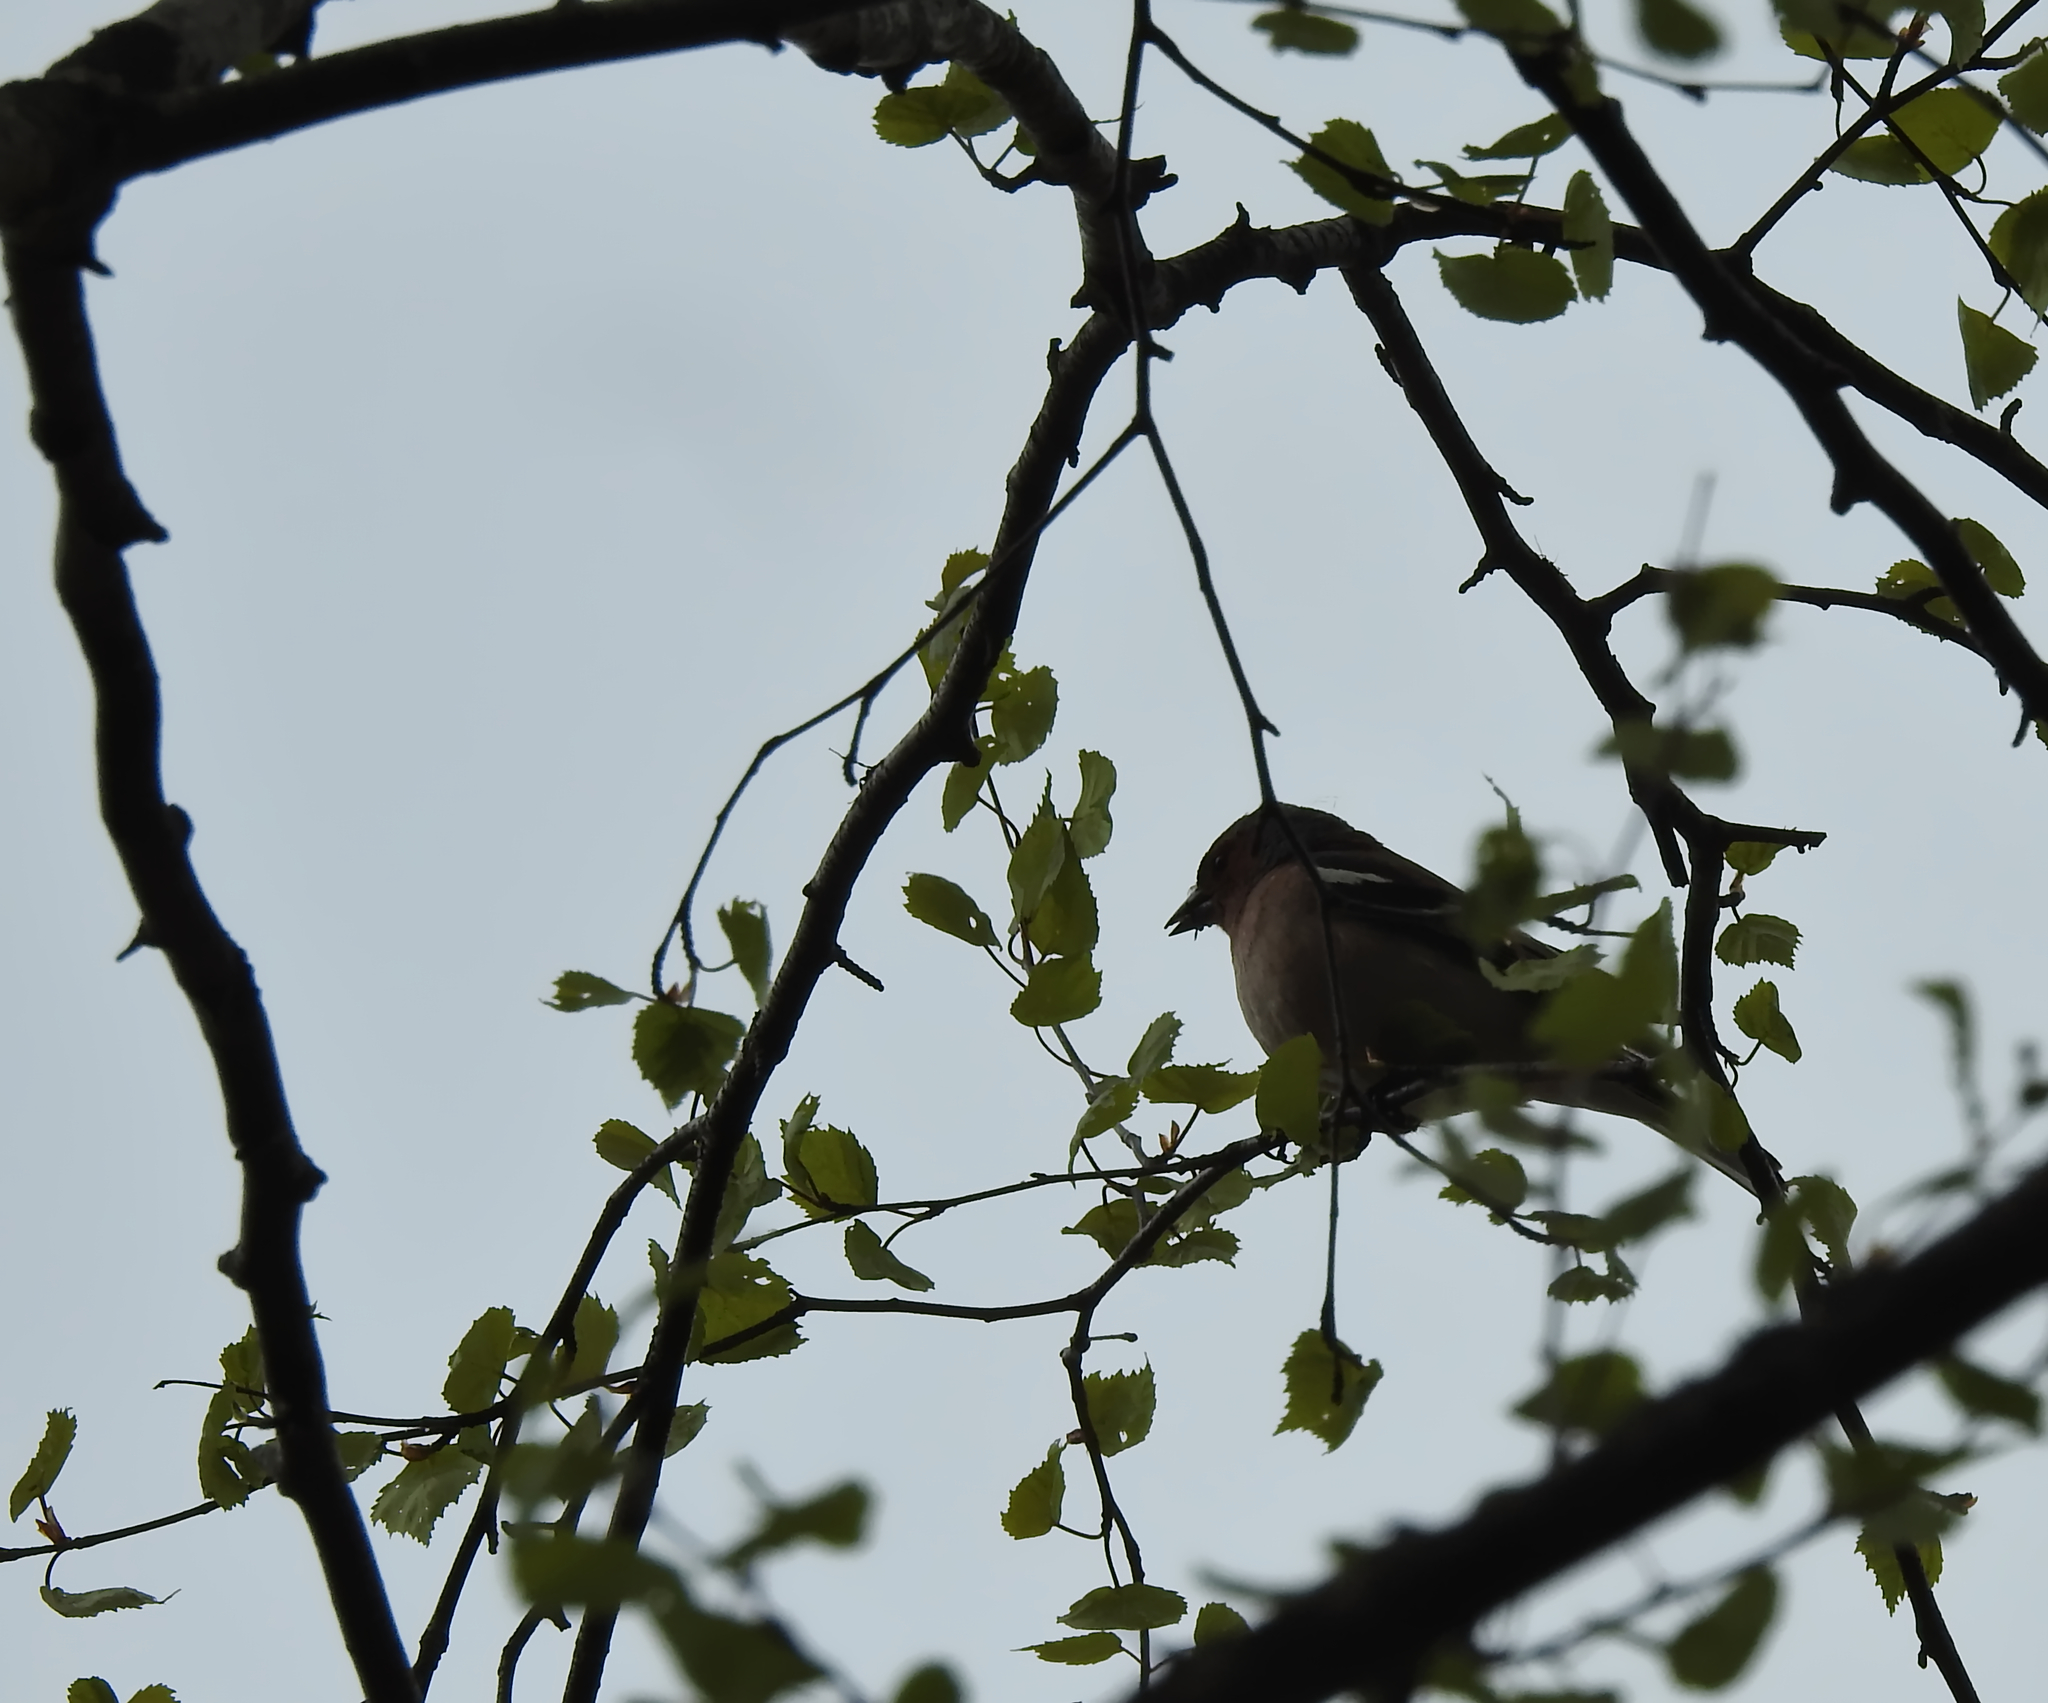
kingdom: Animalia
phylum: Chordata
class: Aves
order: Passeriformes
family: Fringillidae
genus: Fringilla
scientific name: Fringilla coelebs
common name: Common chaffinch
